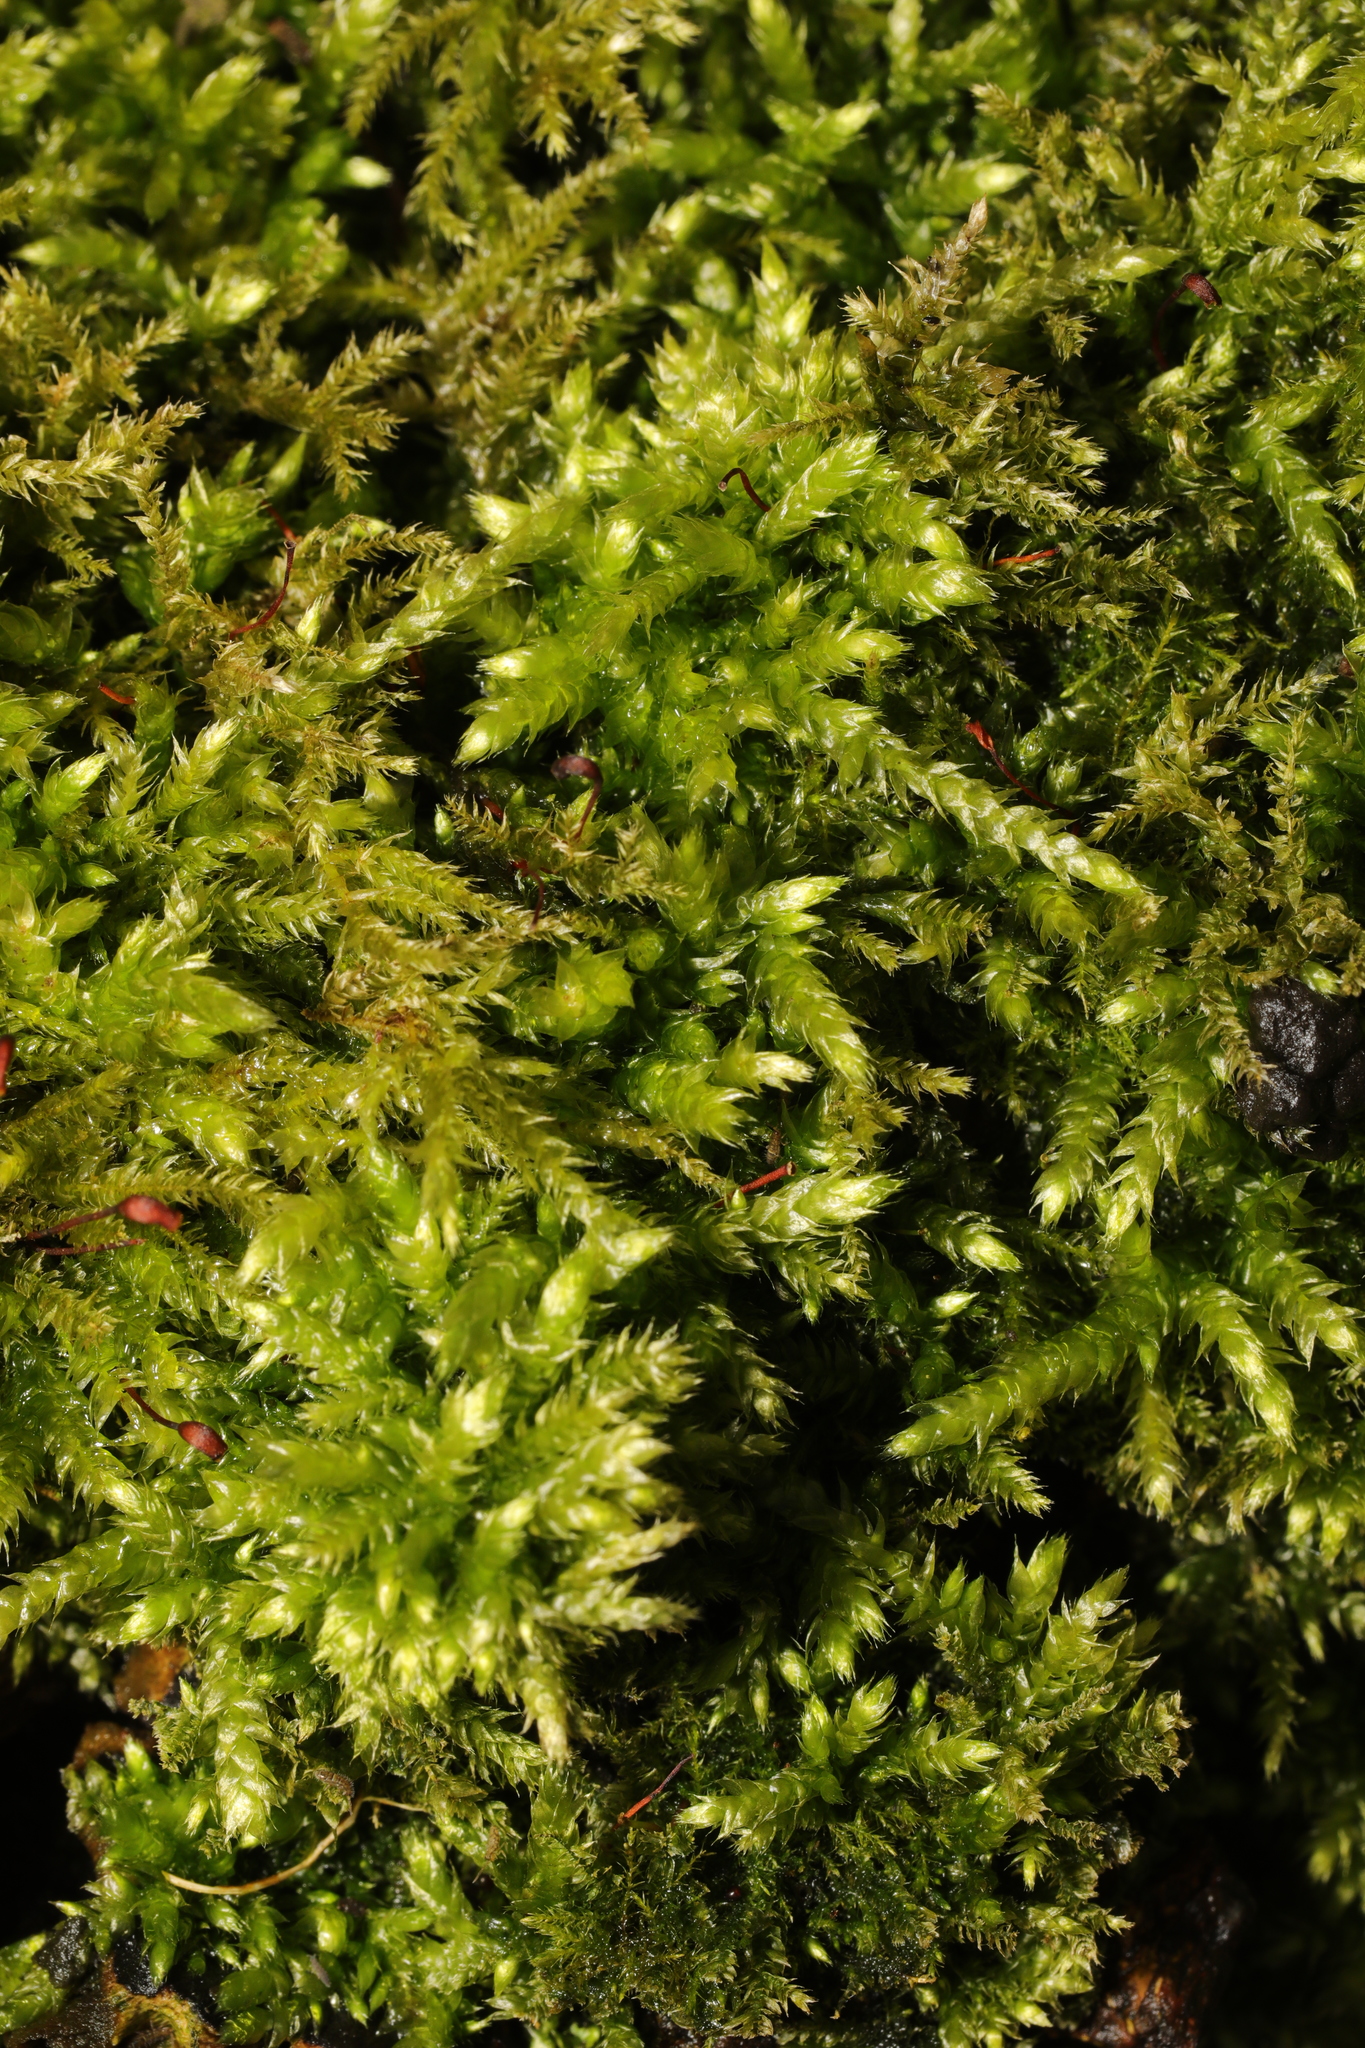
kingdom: Plantae
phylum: Bryophyta
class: Bryopsida
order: Hypnales
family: Brachytheciaceae
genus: Brachythecium
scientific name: Brachythecium rutabulum
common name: Rough-stalked feather-moss
